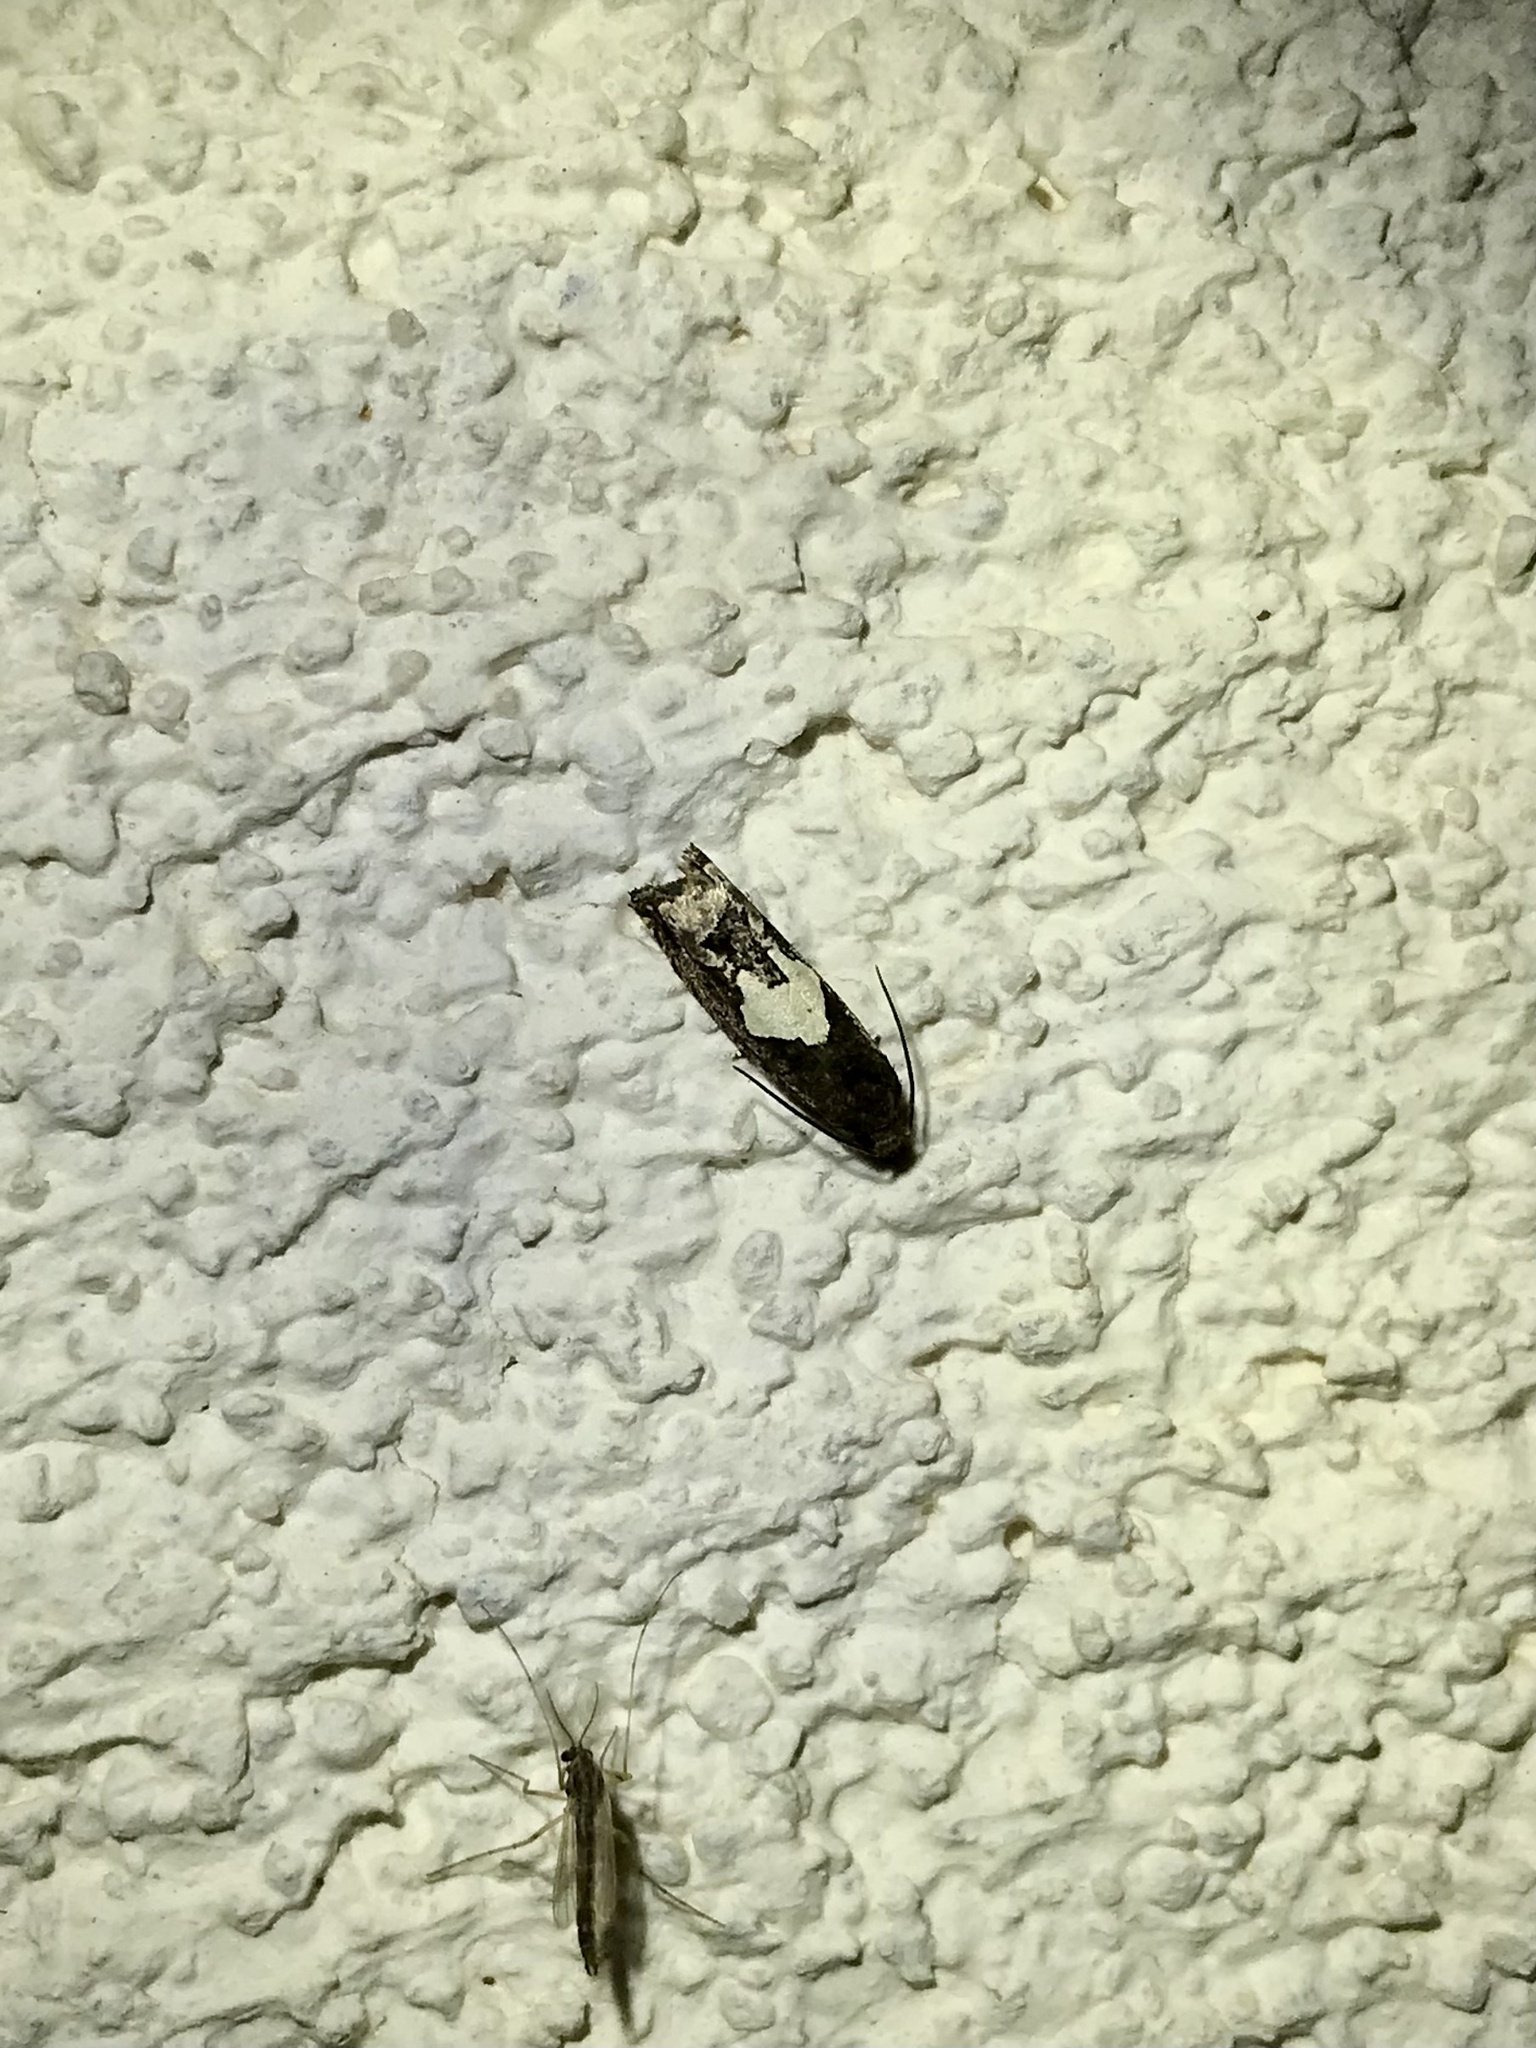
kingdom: Animalia
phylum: Arthropoda
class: Insecta
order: Lepidoptera
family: Tortricidae
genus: Epiblema
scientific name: Epiblema otiosana
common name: Bidens borer moth
